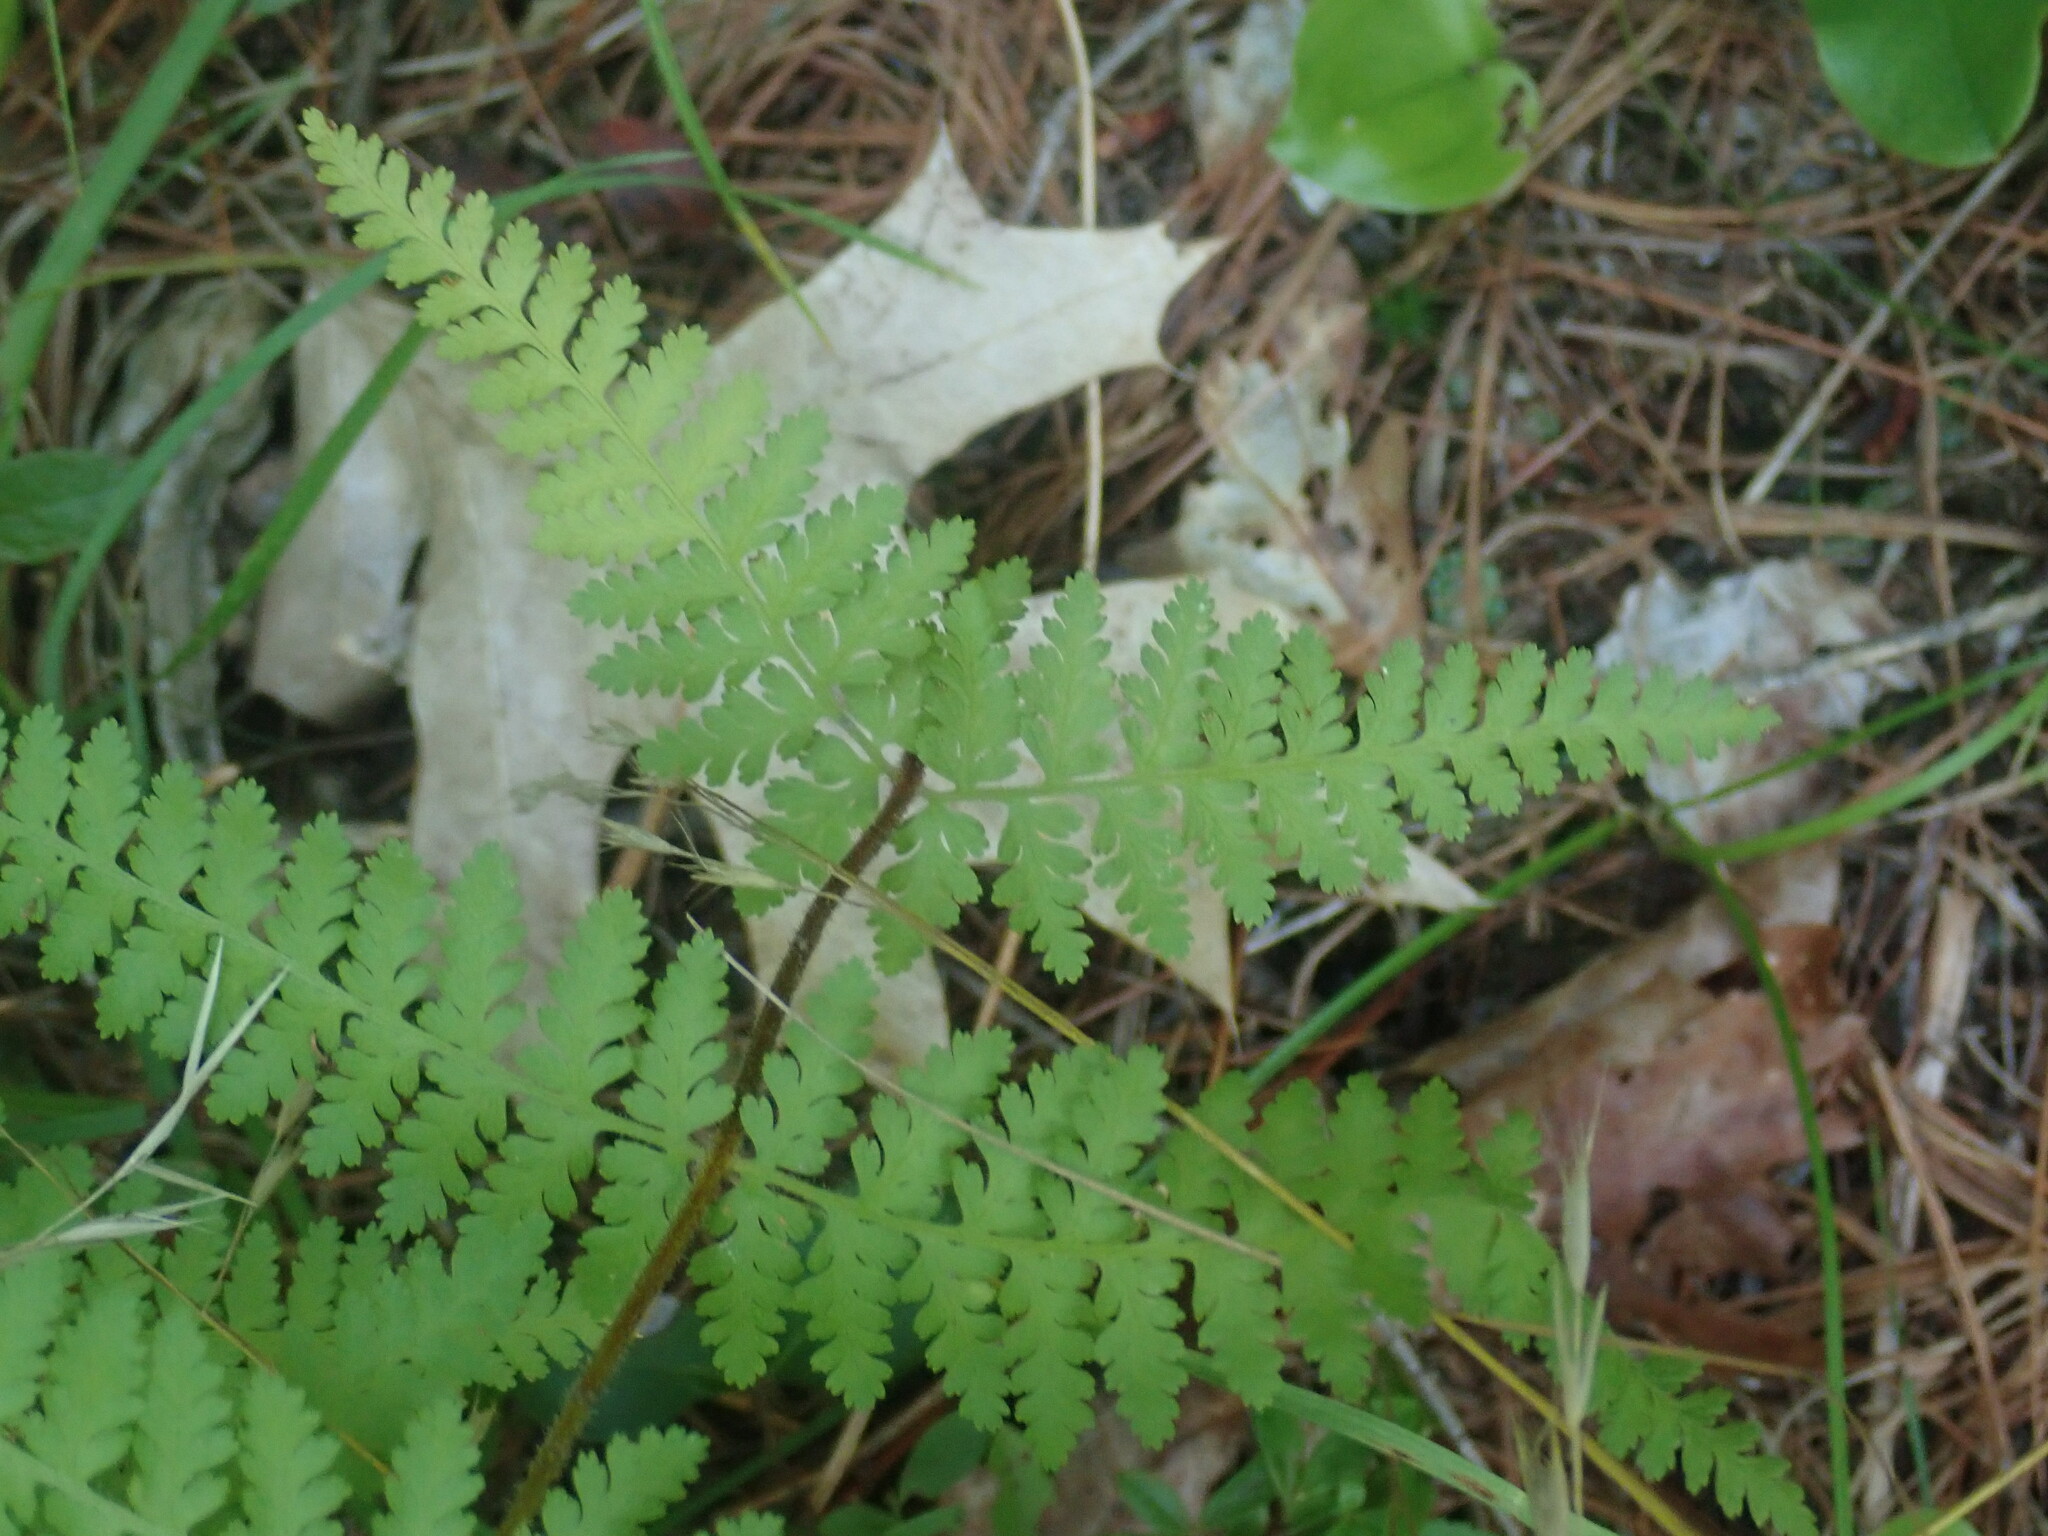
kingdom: Plantae
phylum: Tracheophyta
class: Polypodiopsida
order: Polypodiales
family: Dennstaedtiaceae
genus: Sitobolium
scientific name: Sitobolium punctilobum
